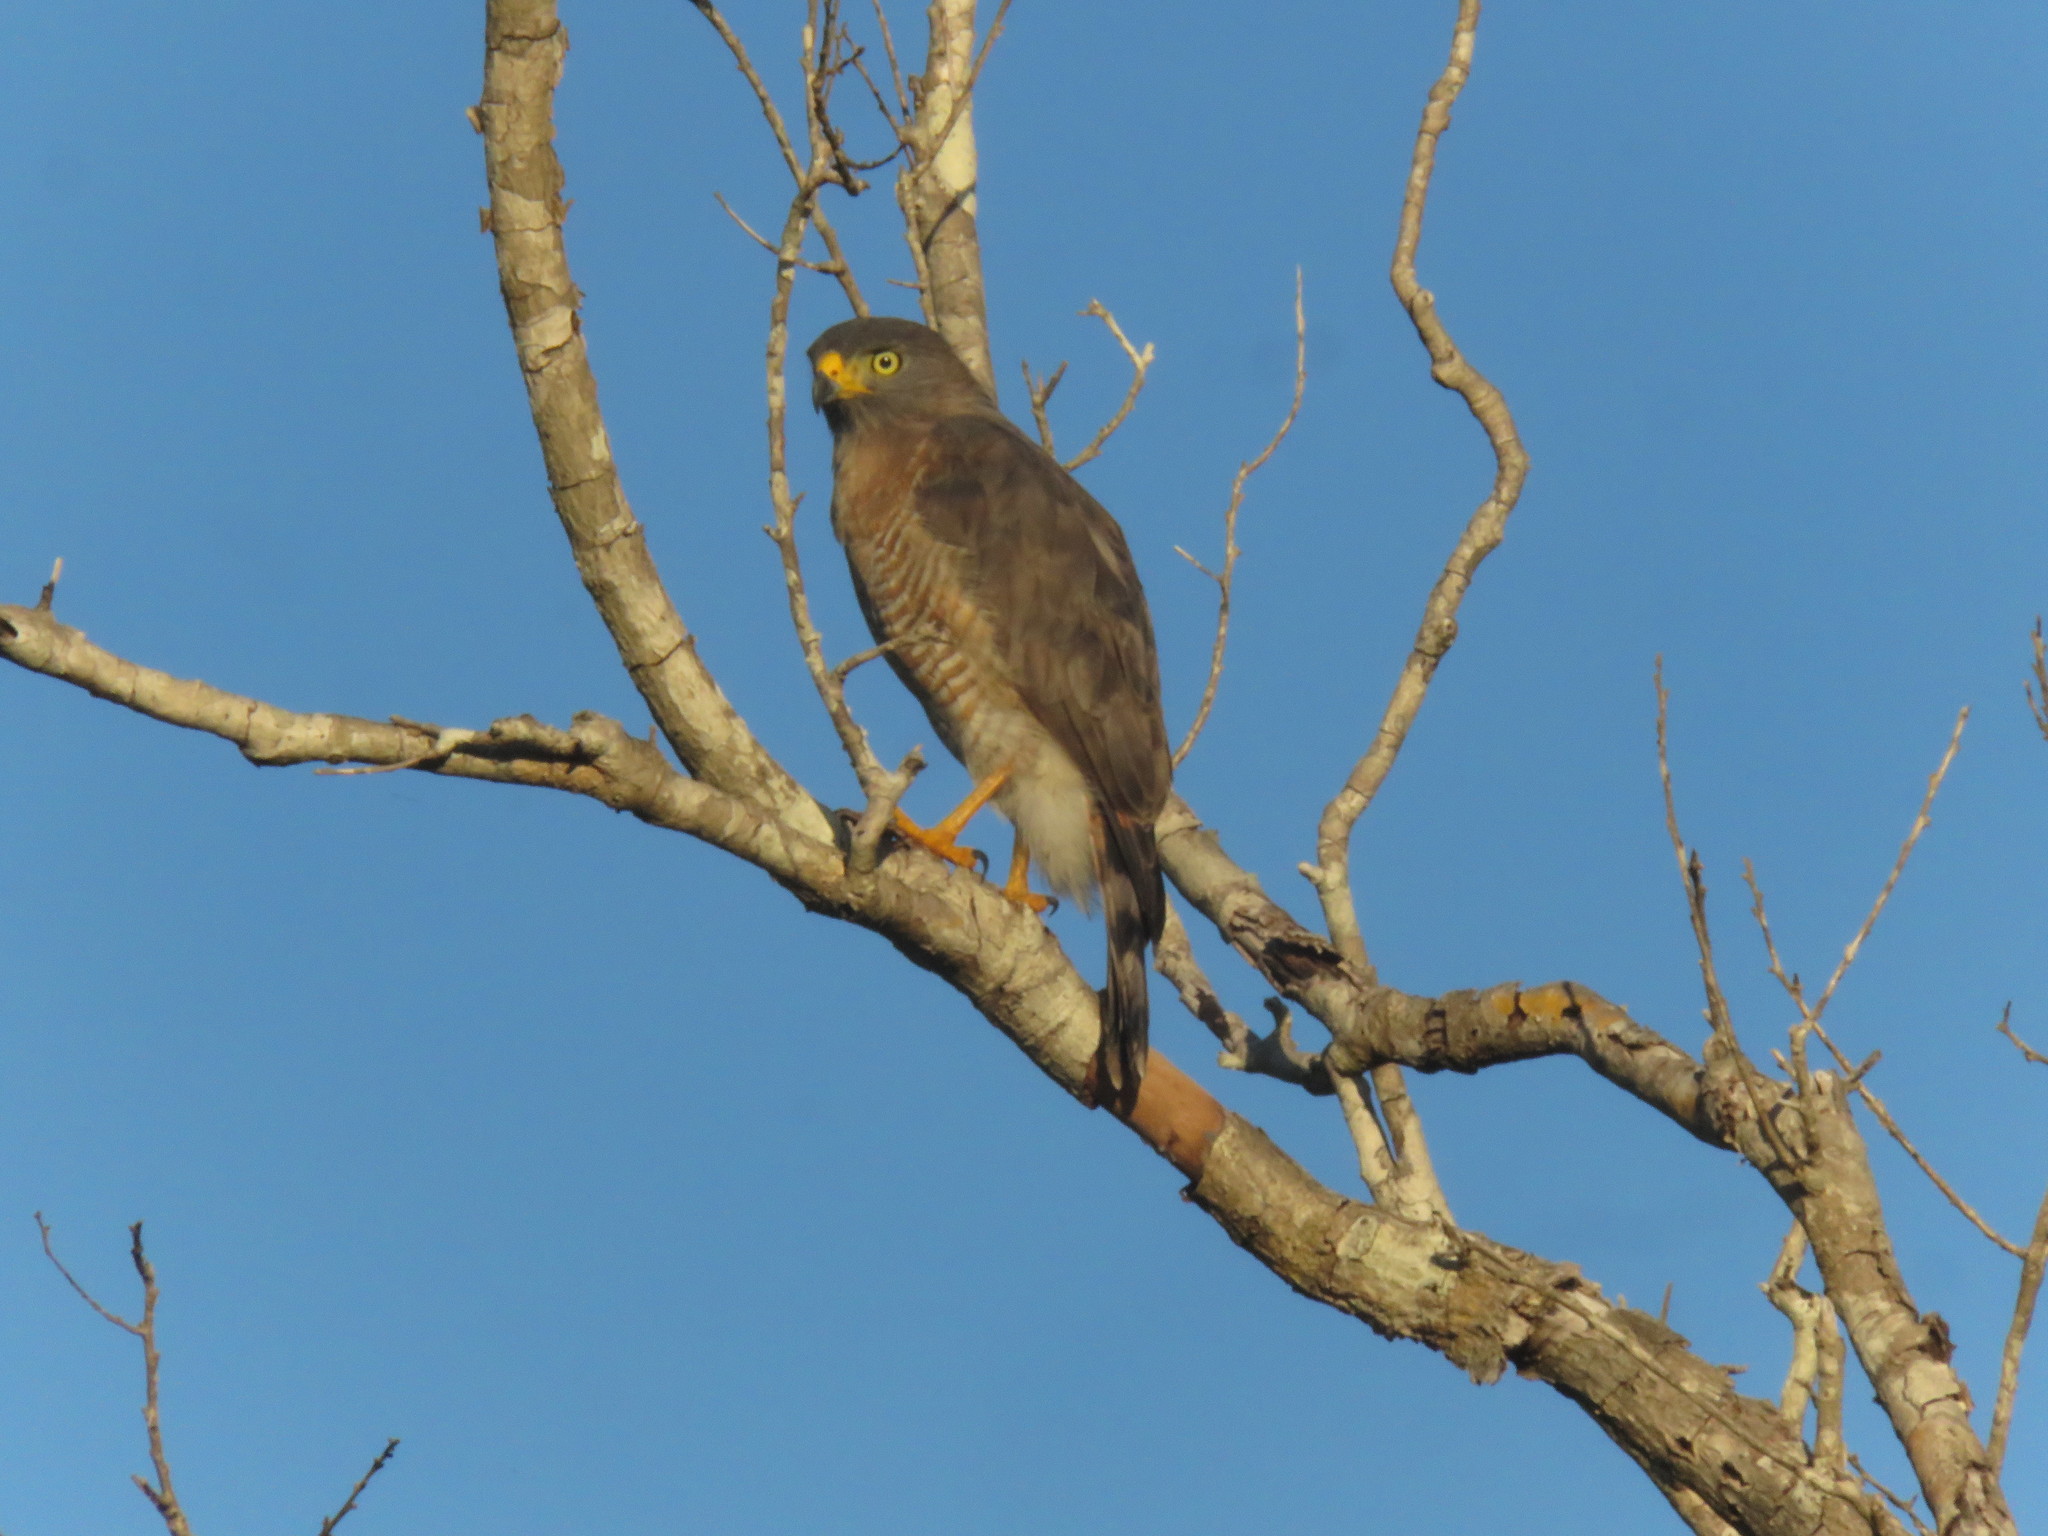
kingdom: Animalia
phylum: Chordata
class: Aves
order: Accipitriformes
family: Accipitridae
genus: Rupornis
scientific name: Rupornis magnirostris
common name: Roadside hawk
